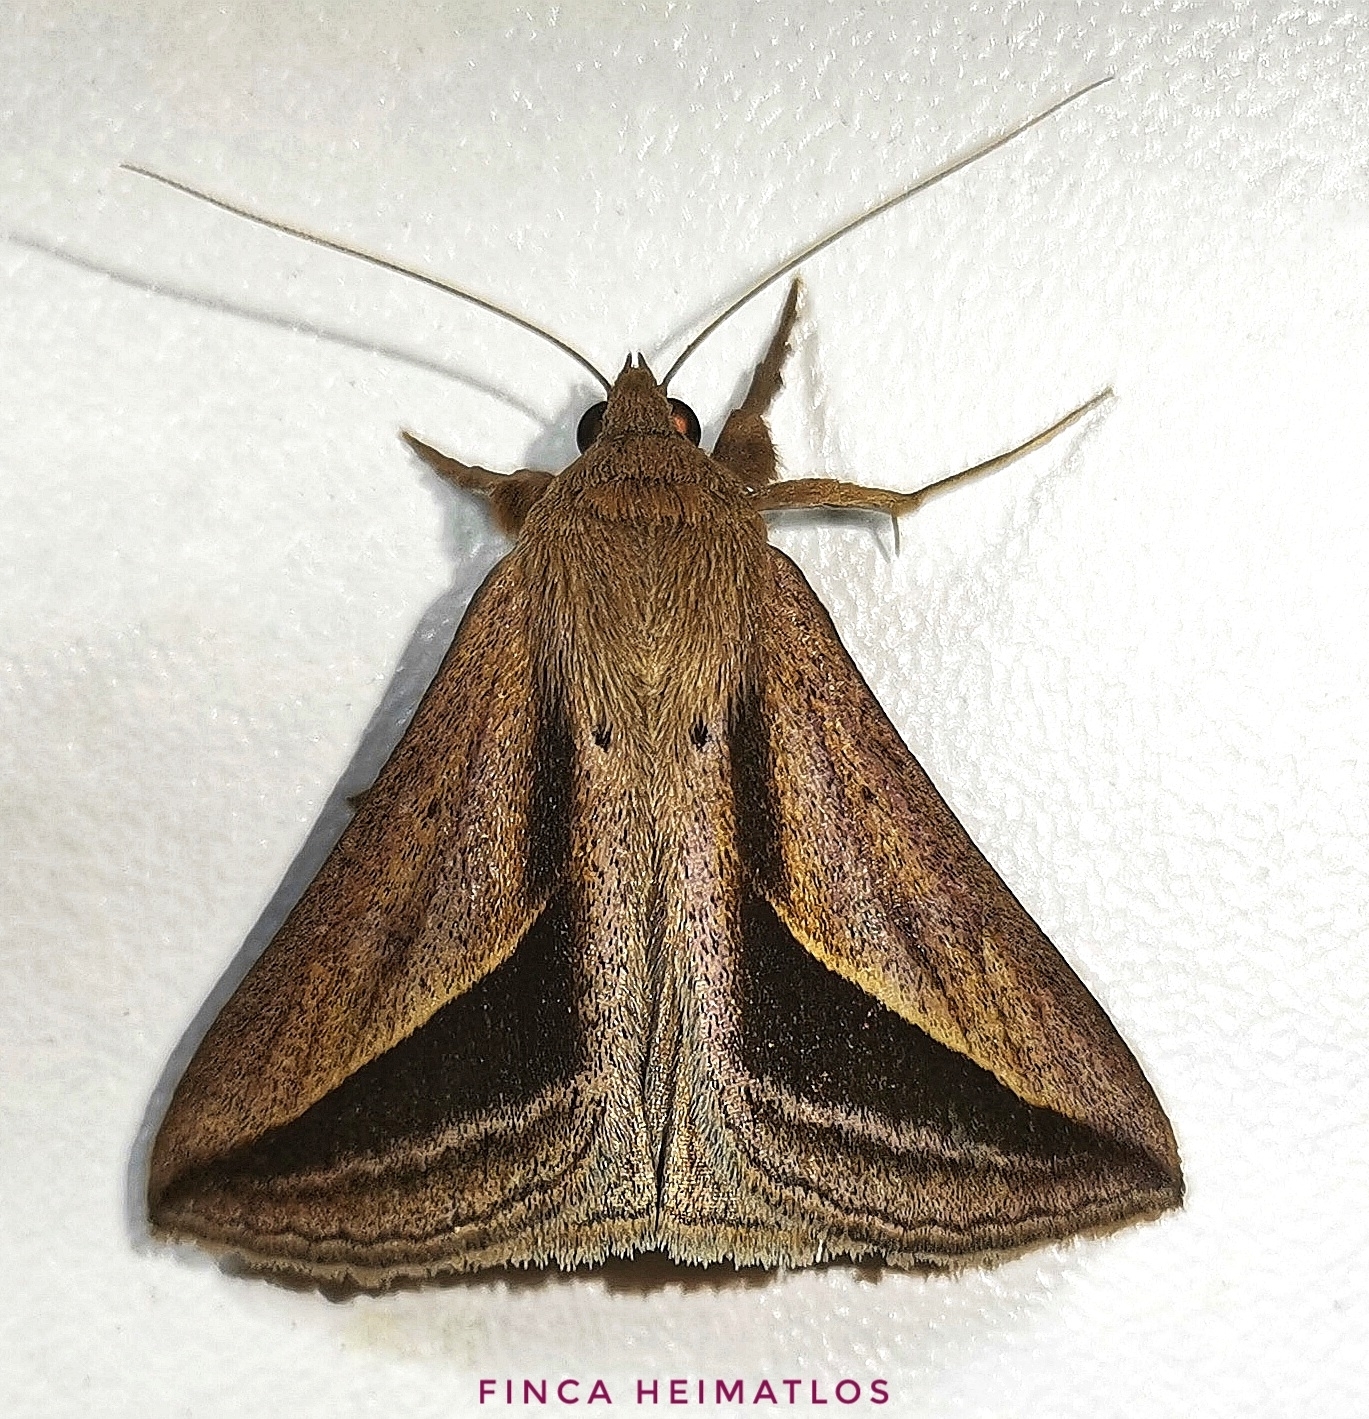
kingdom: Animalia
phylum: Arthropoda
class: Insecta
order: Lepidoptera
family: Erebidae
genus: Mocis
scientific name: Mocis dyndima
